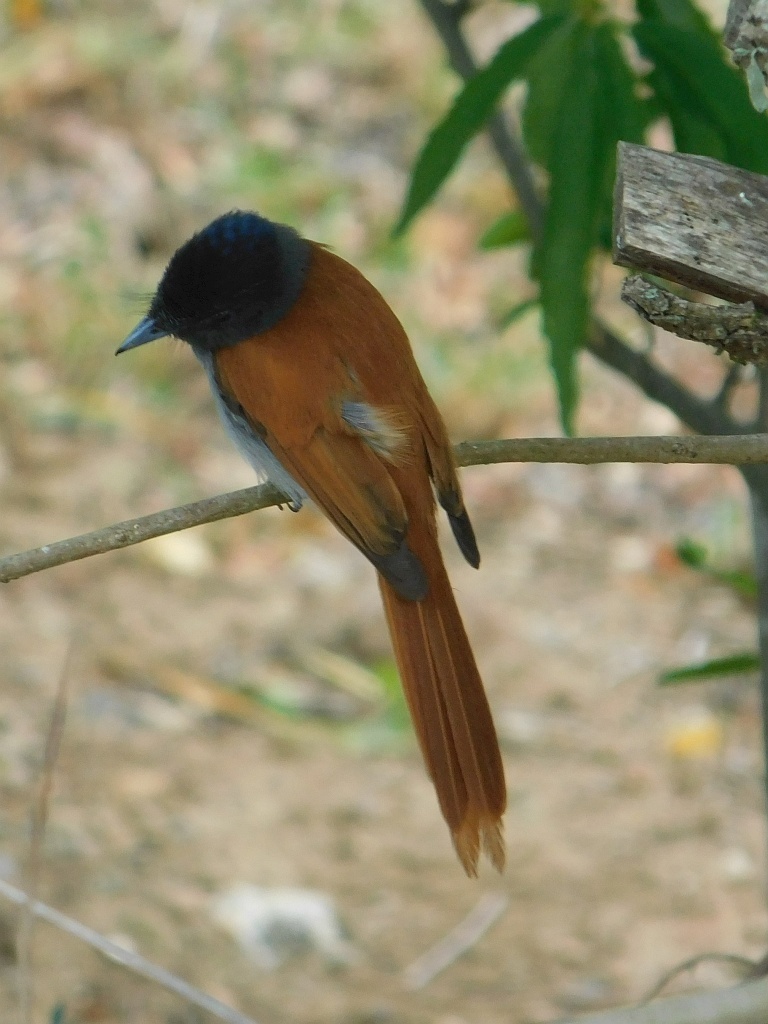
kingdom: Animalia
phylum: Chordata
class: Aves
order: Passeriformes
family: Monarchidae
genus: Terpsiphone
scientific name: Terpsiphone viridis
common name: African paradise flycatcher
